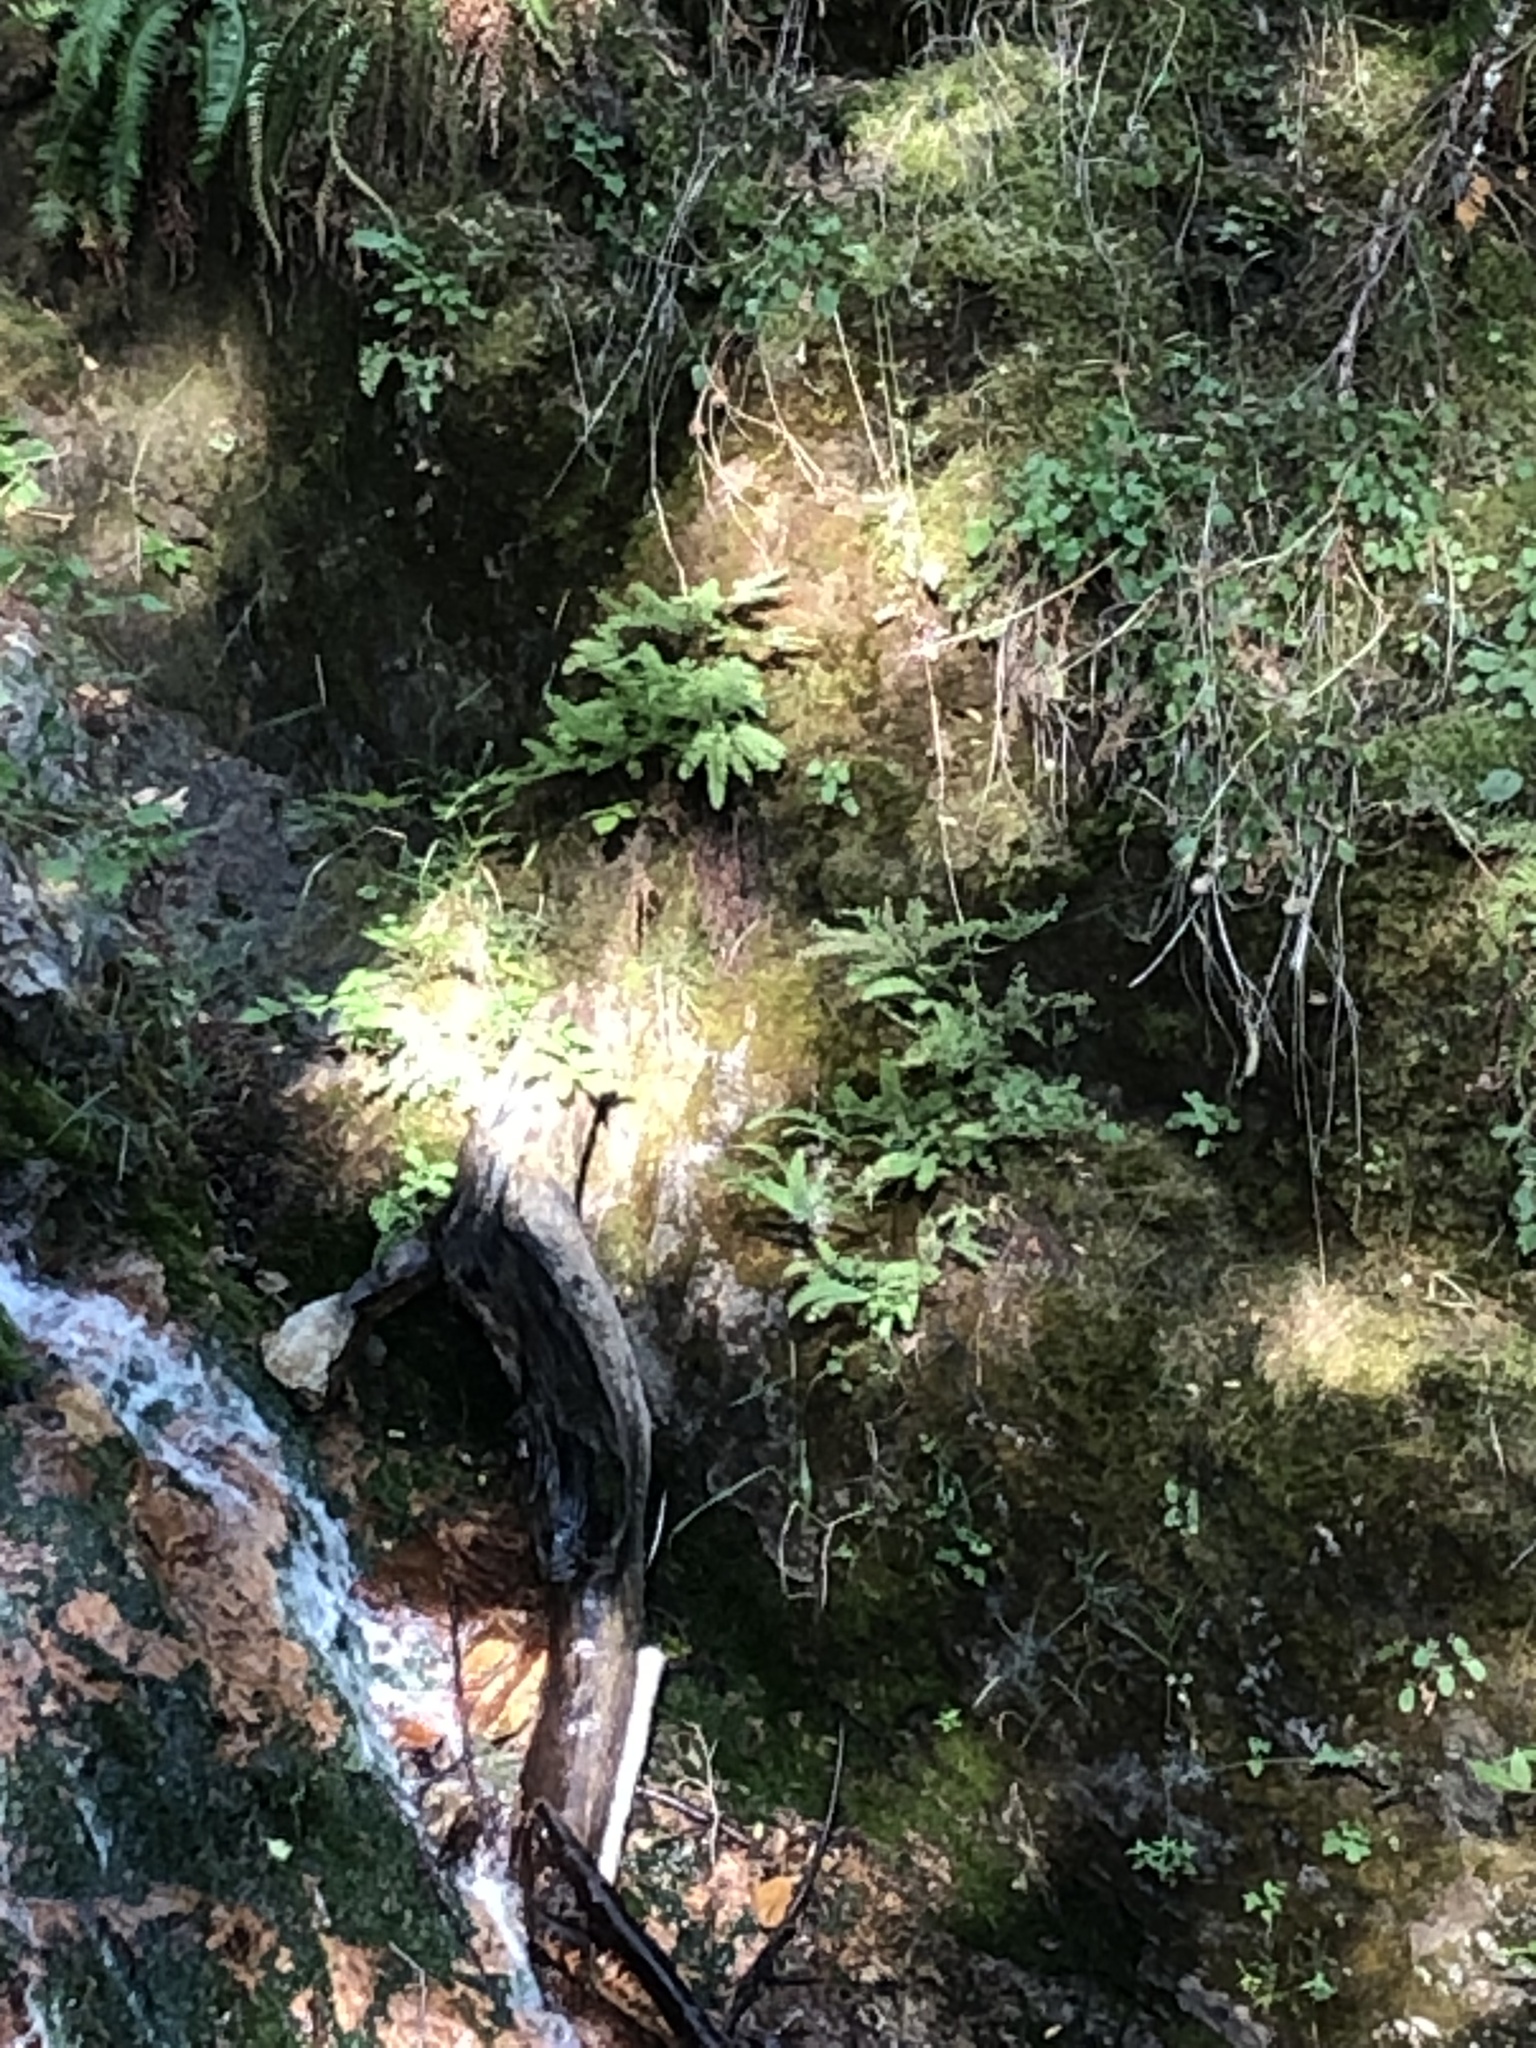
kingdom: Plantae
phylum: Tracheophyta
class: Polypodiopsida
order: Polypodiales
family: Pteridaceae
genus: Adiantum
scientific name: Adiantum aleuticum
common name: Aleutian maidenhair fern
